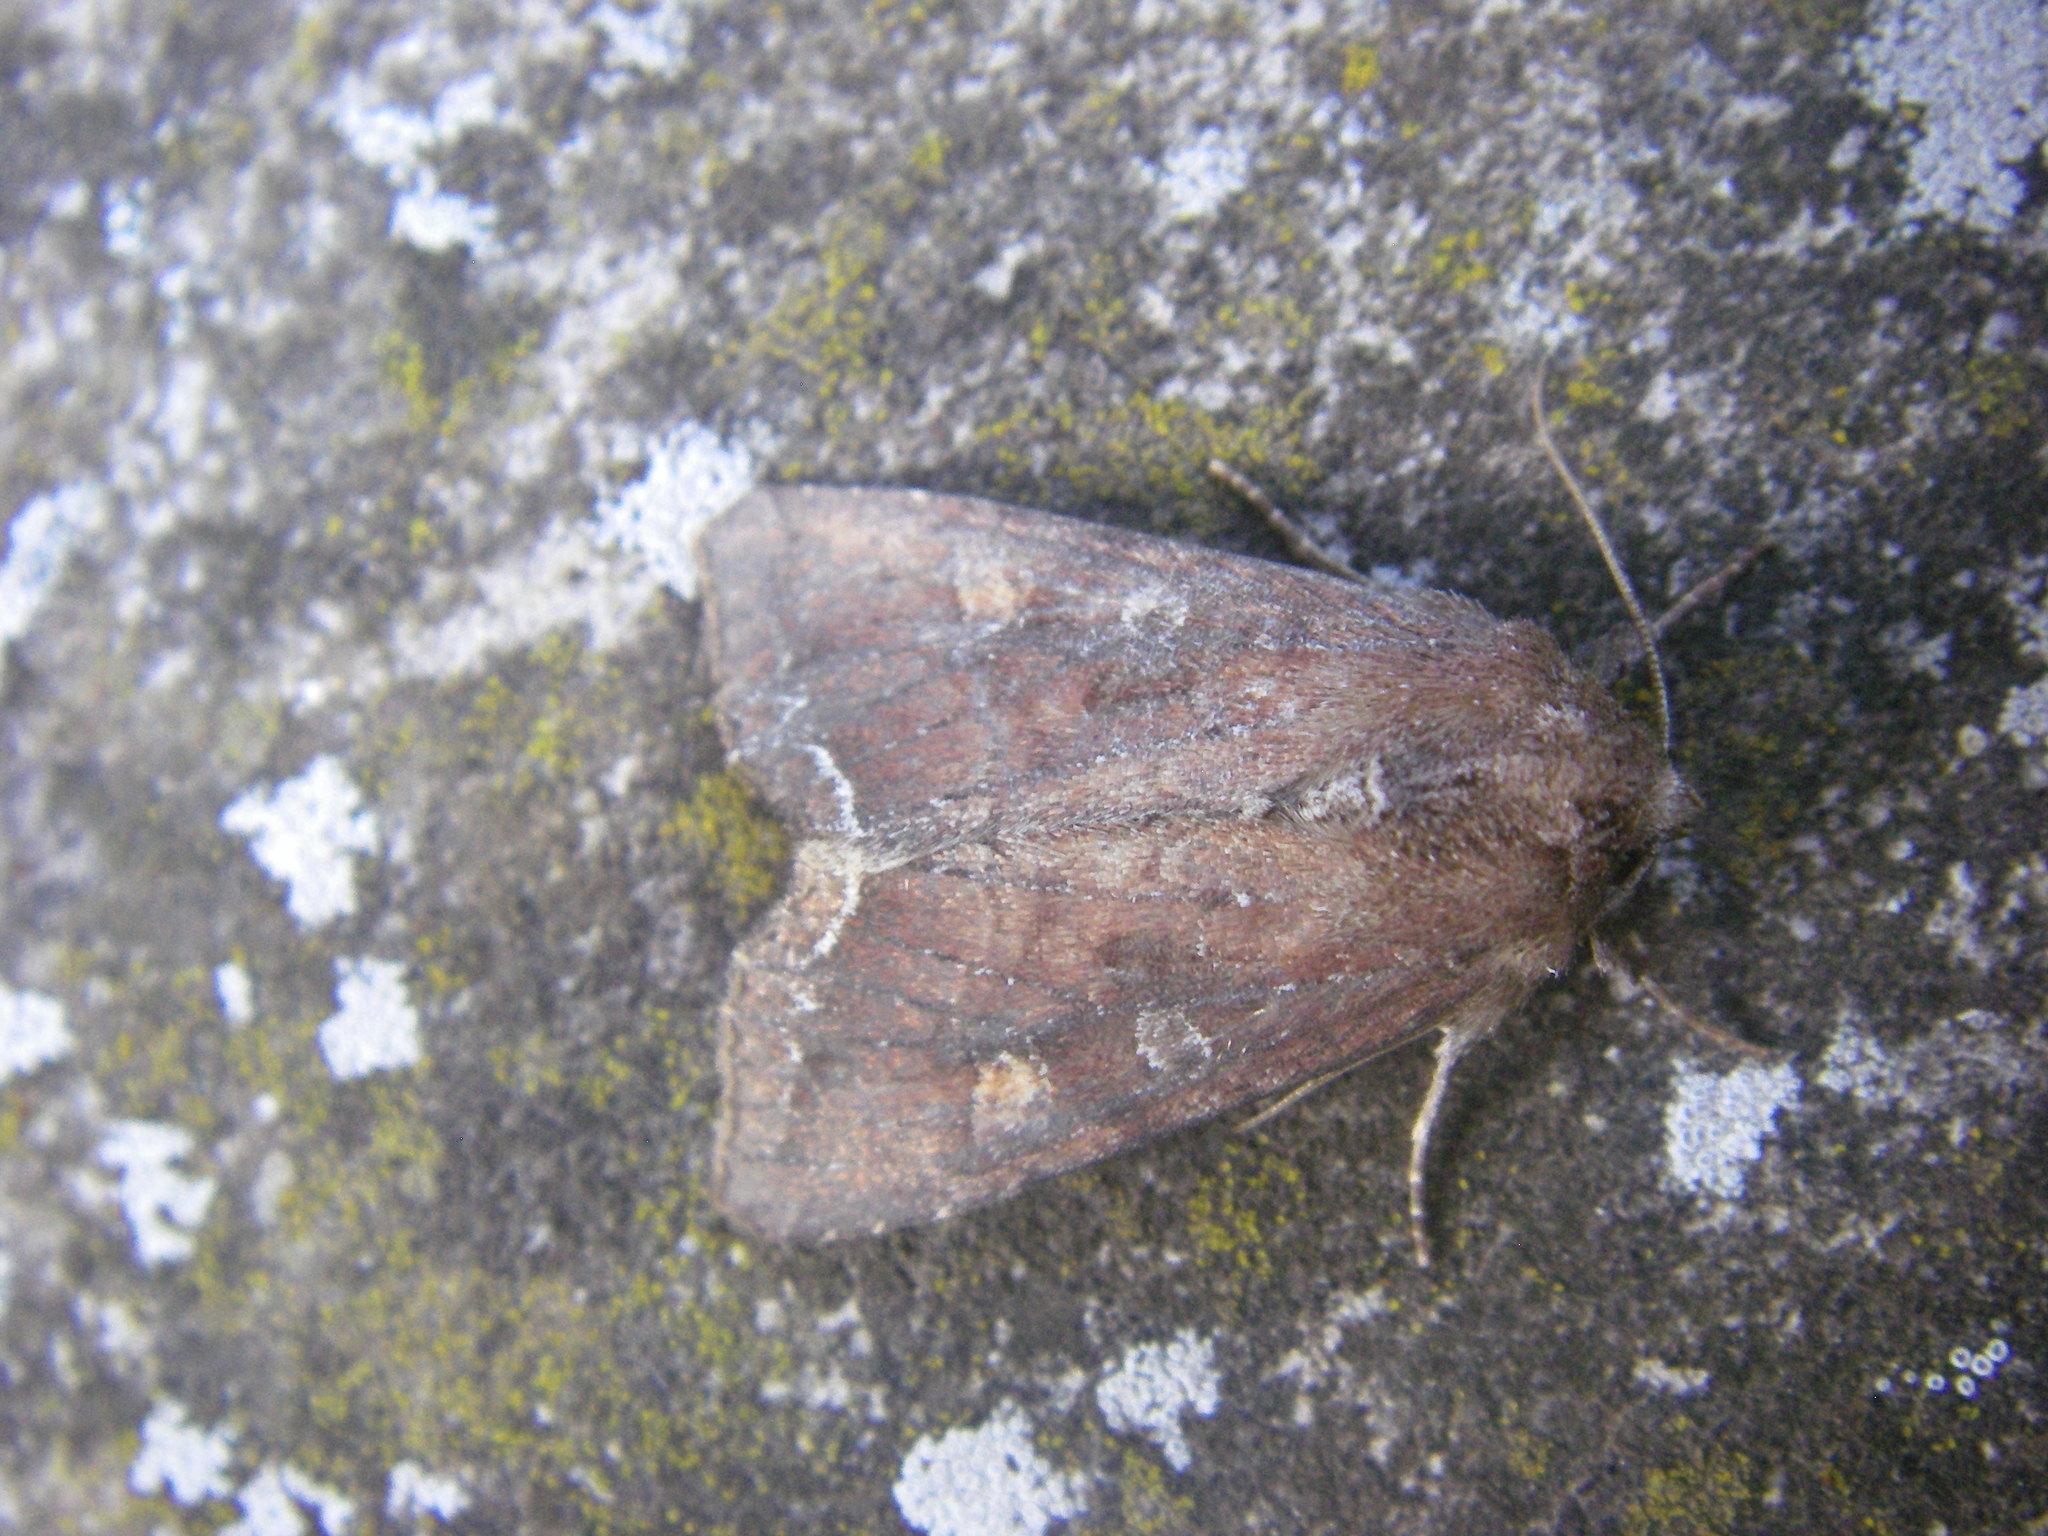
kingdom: Animalia
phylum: Arthropoda
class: Insecta
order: Lepidoptera
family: Noctuidae
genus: Lacanobia
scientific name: Lacanobia oleracea
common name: Bright-line brown-eye
